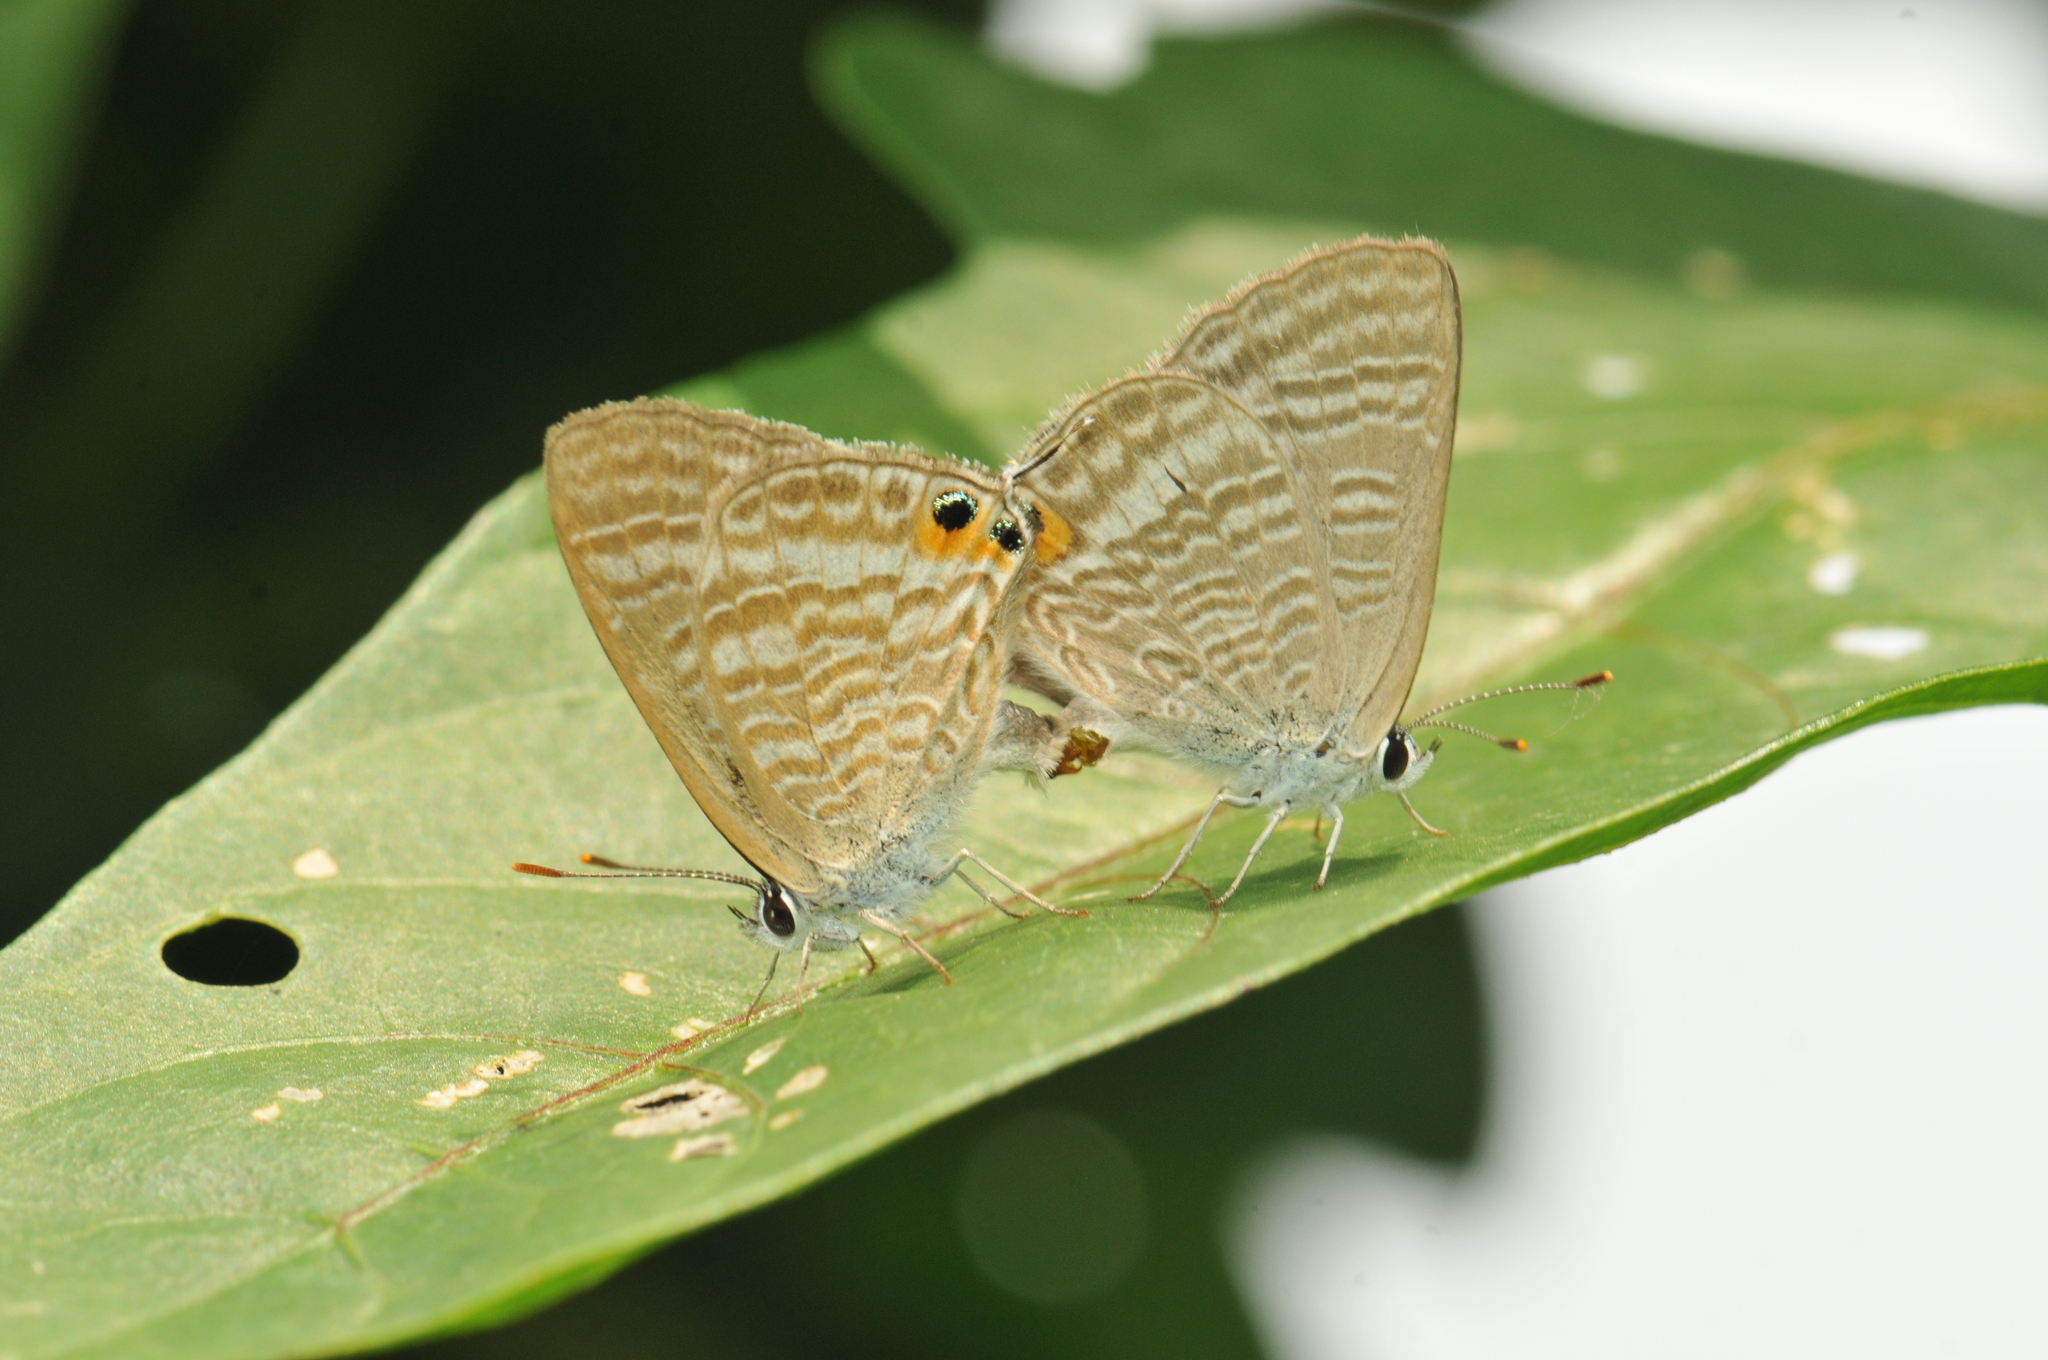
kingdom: Animalia
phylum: Arthropoda
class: Insecta
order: Lepidoptera
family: Lycaenidae
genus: Lampides
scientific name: Lampides boeticus
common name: Long-tailed blue
